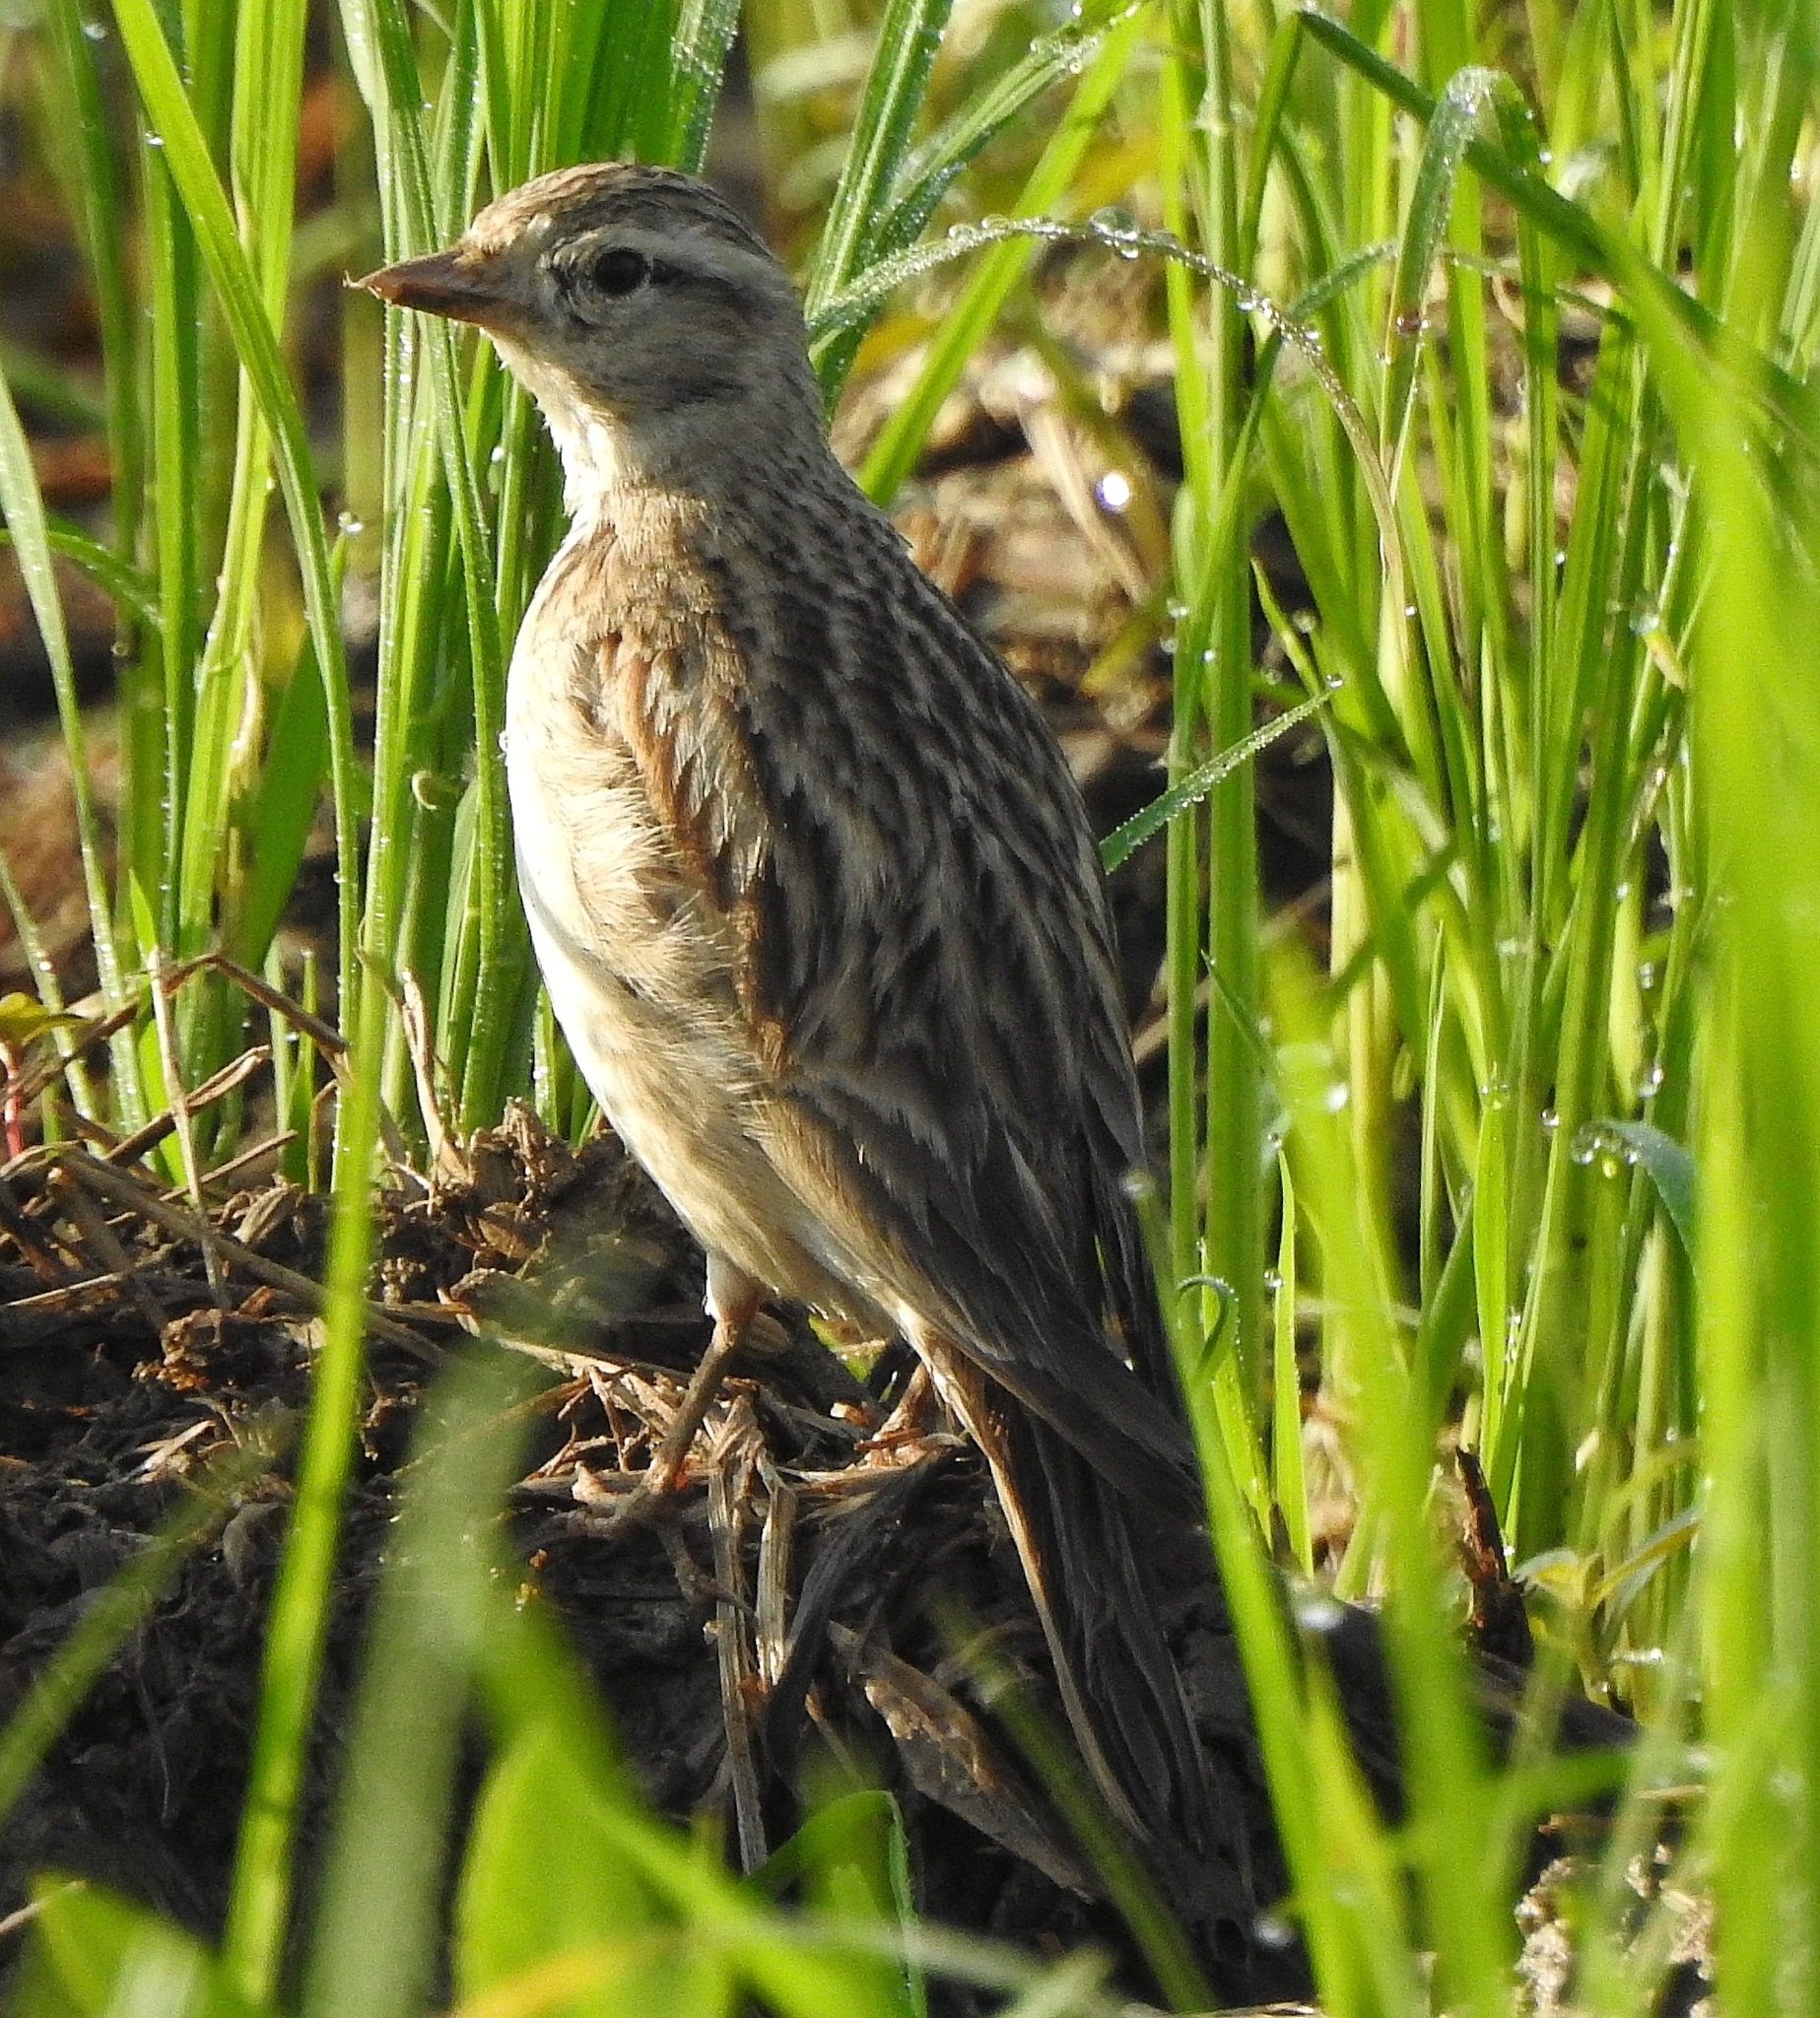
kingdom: Animalia
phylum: Chordata
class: Aves
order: Passeriformes
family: Alaudidae
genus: Calandrella
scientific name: Calandrella brachydactyla
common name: Greater short-toed lark
